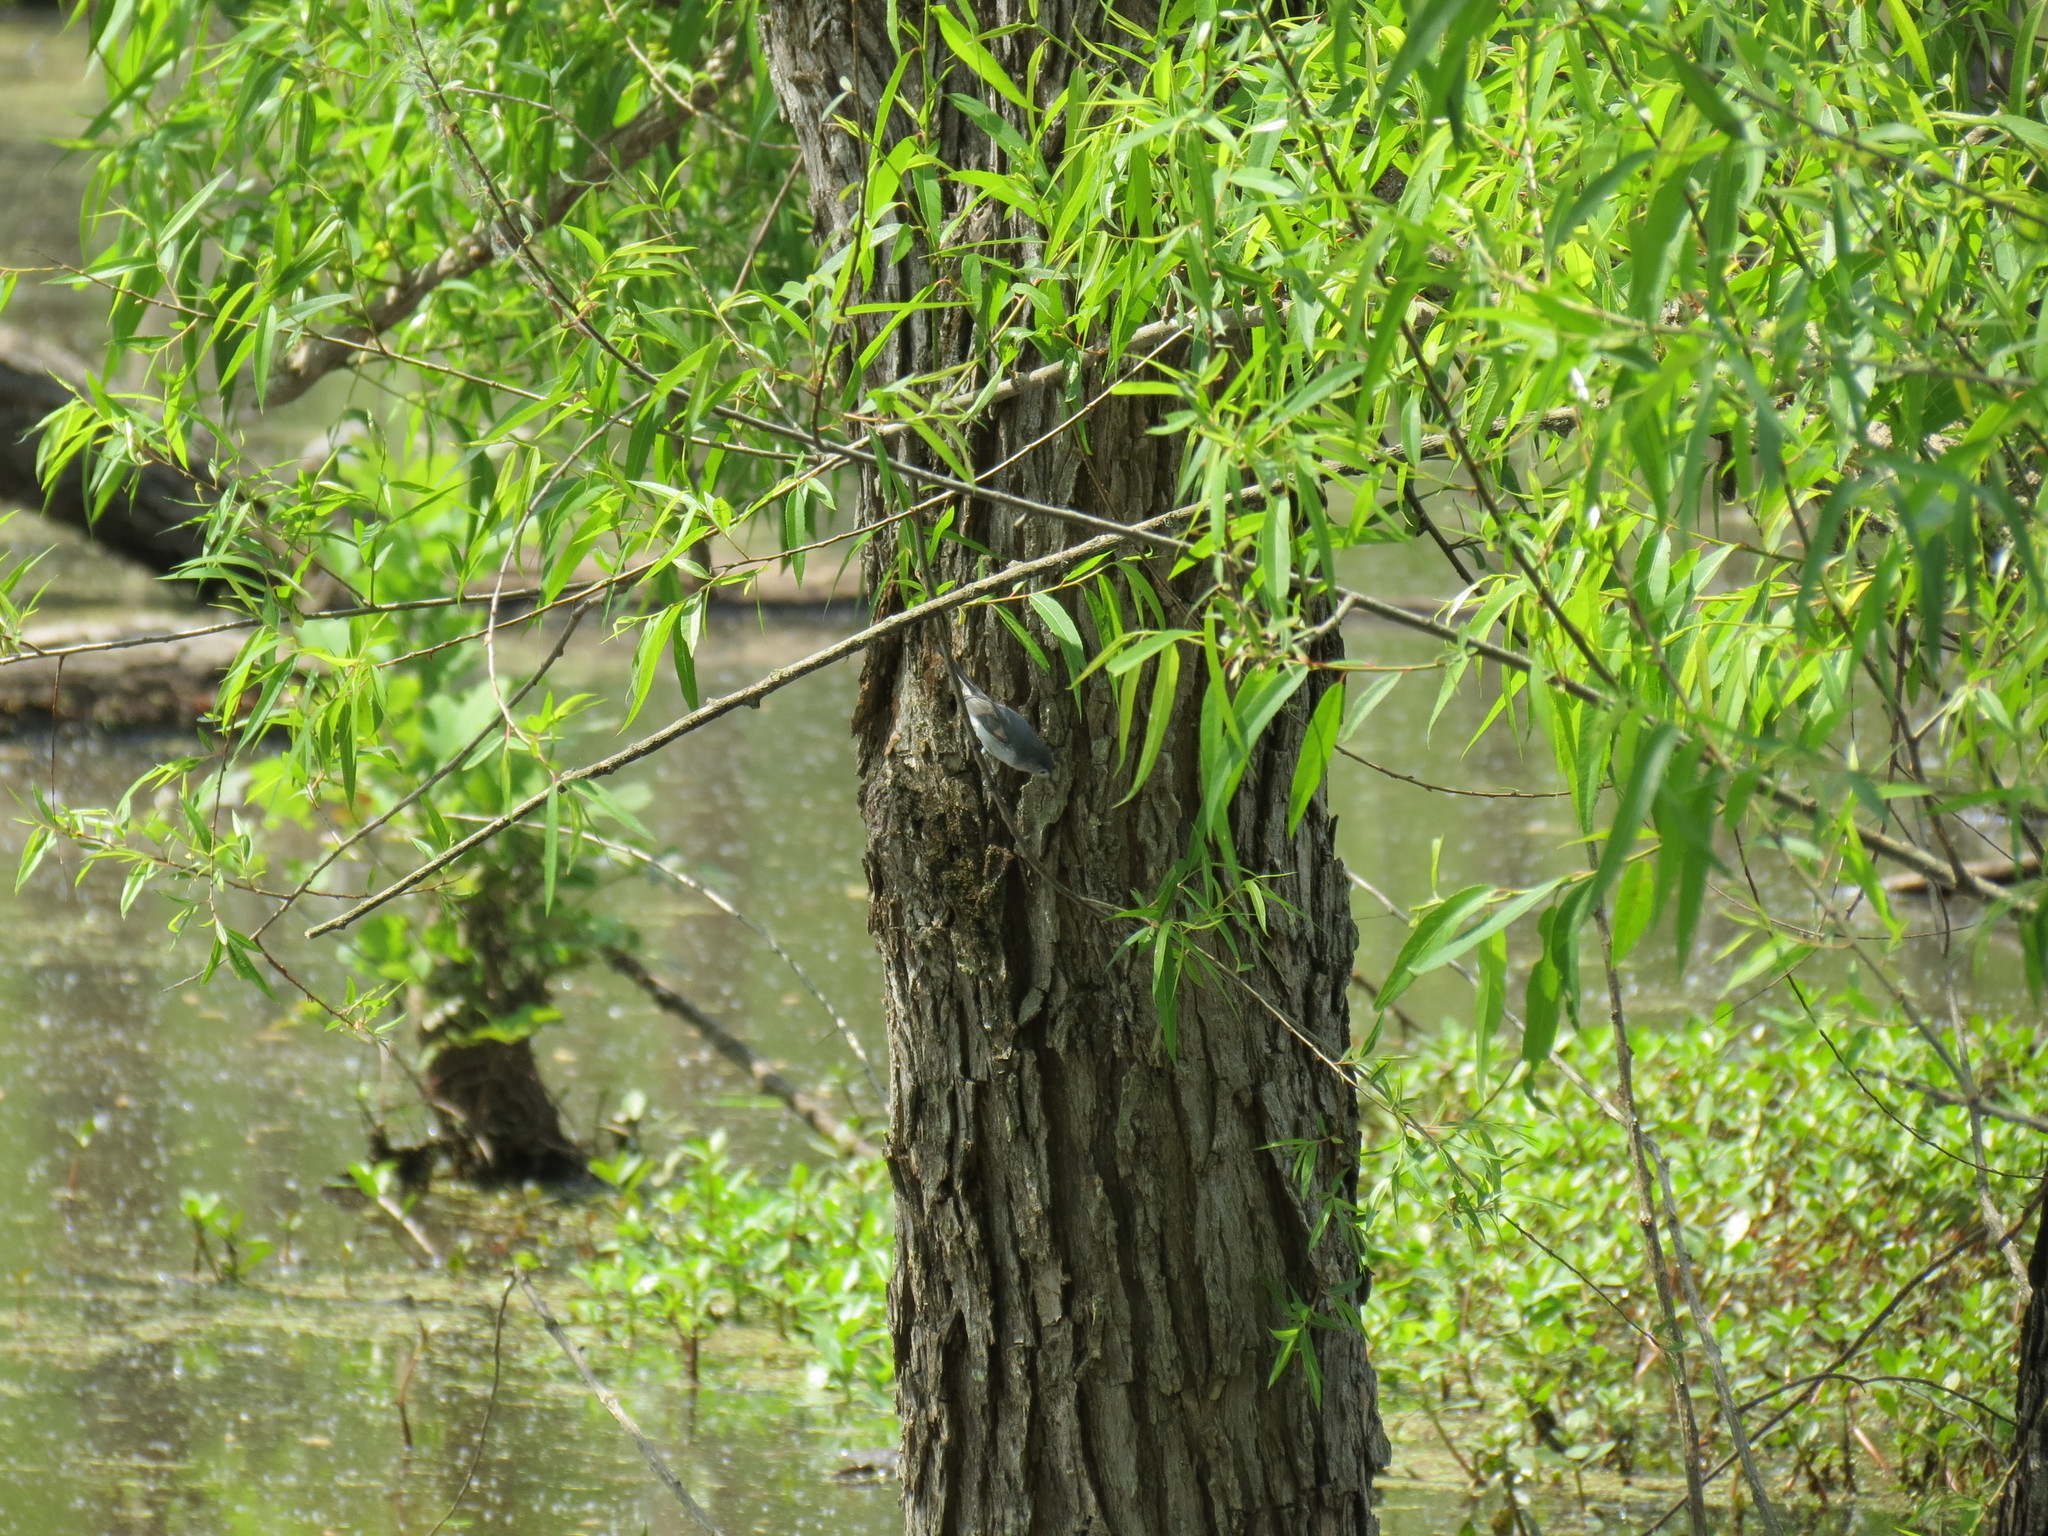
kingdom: Animalia
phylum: Chordata
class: Aves
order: Passeriformes
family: Polioptilidae
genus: Polioptila
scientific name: Polioptila caerulea
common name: Blue-gray gnatcatcher
